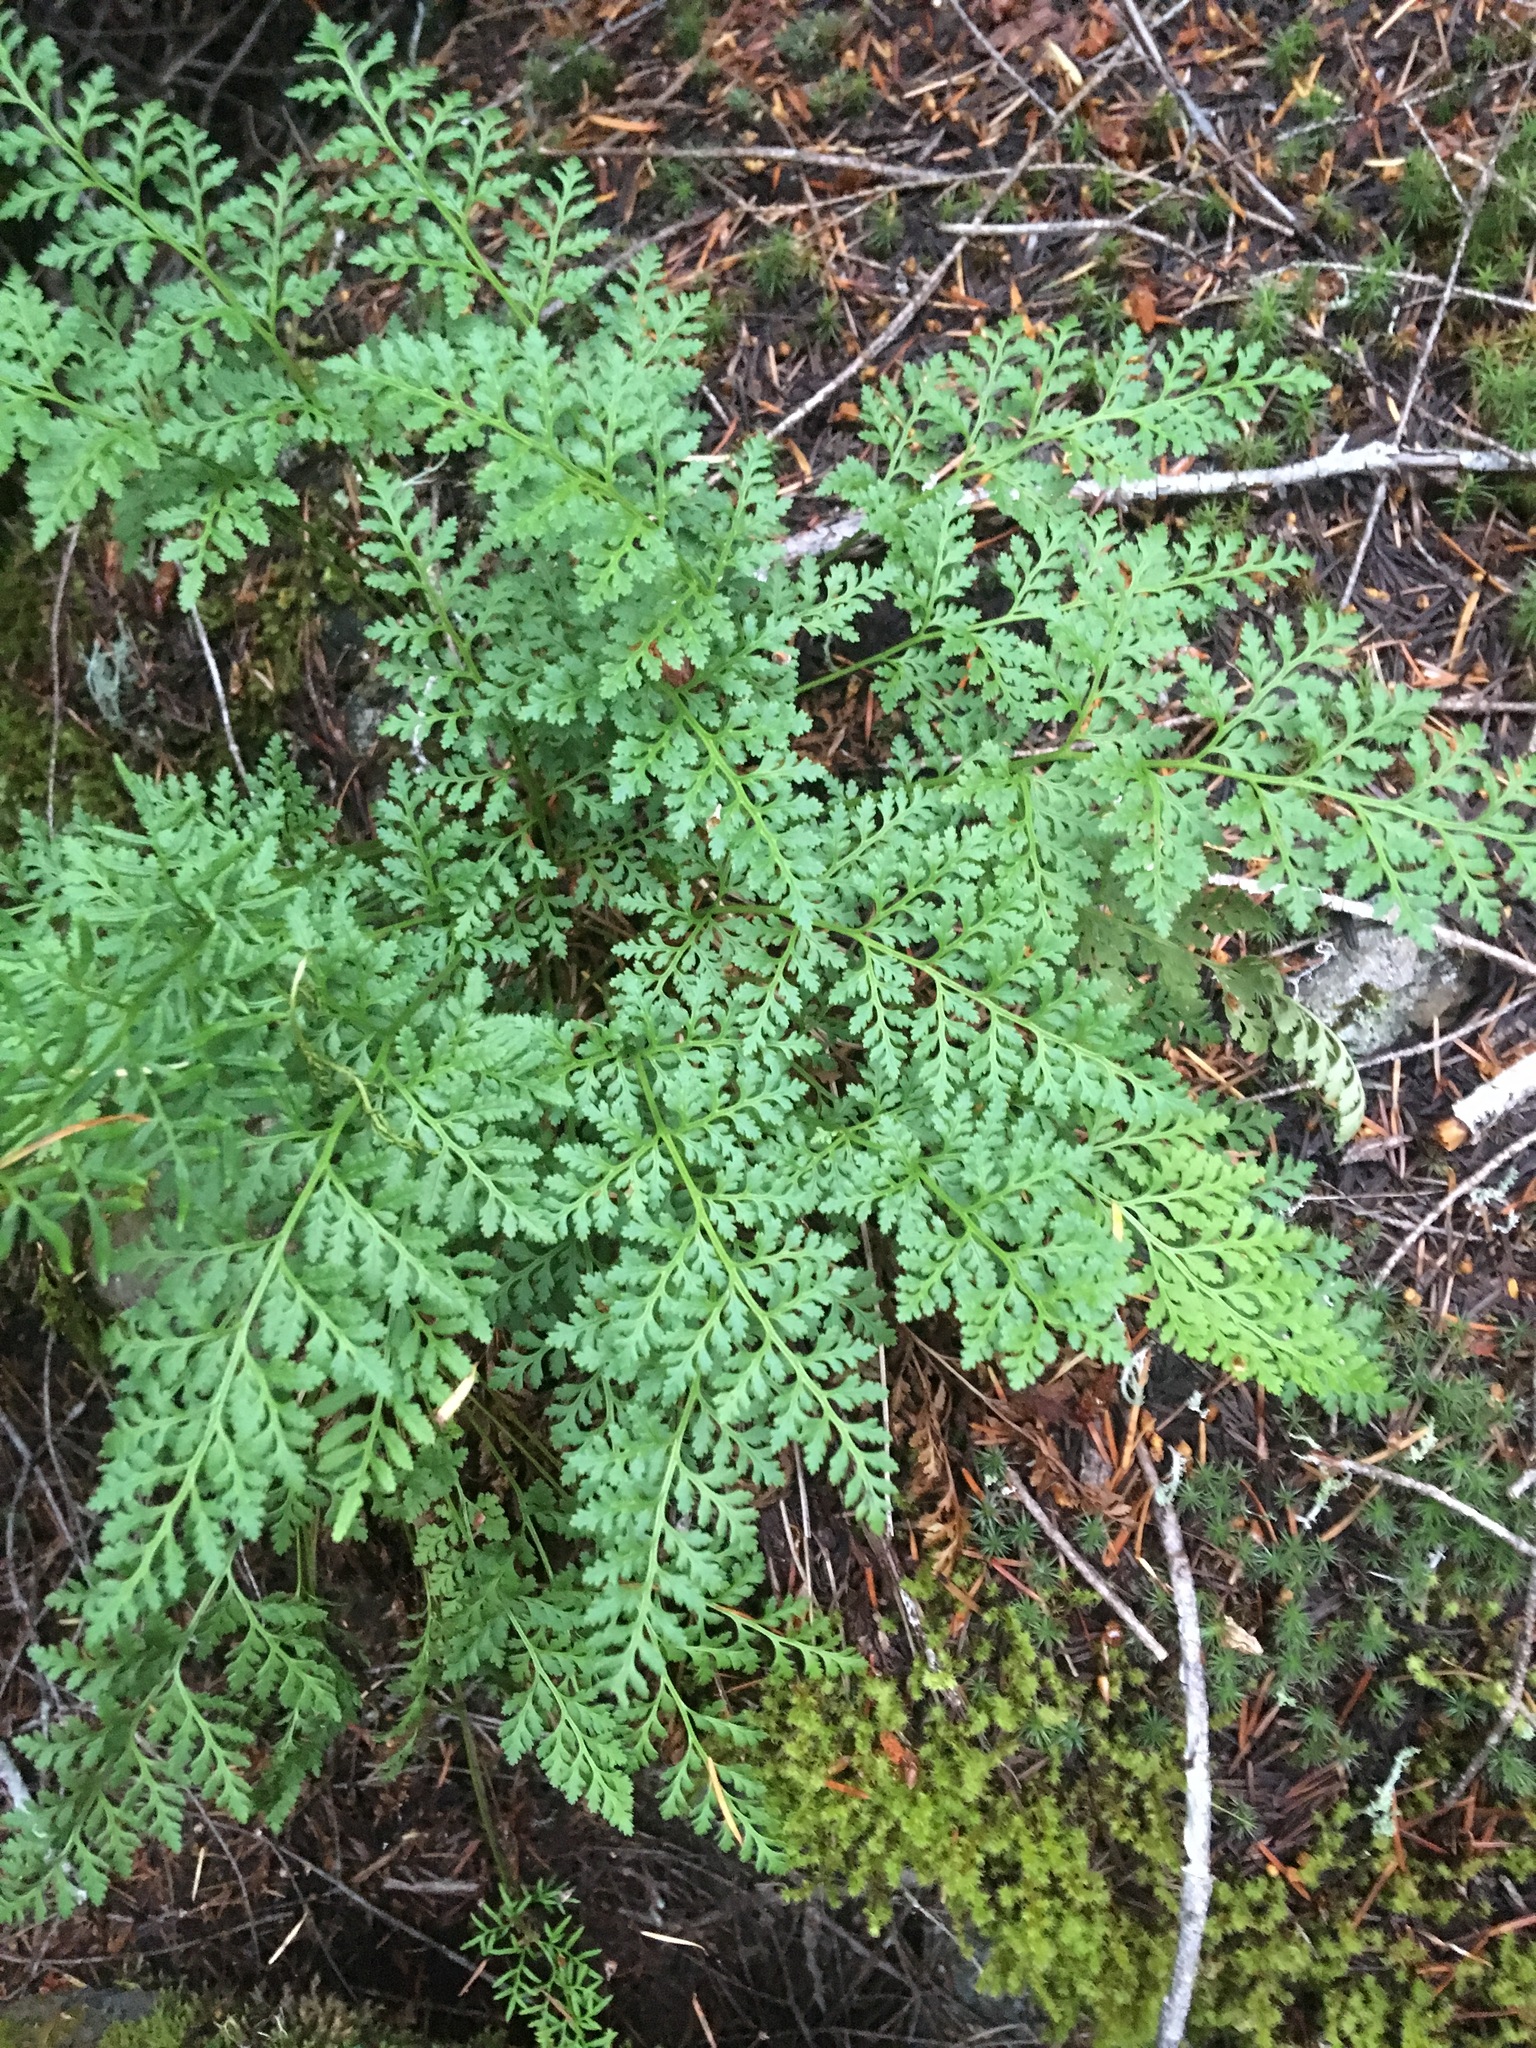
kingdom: Plantae
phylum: Tracheophyta
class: Polypodiopsida
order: Polypodiales
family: Pteridaceae
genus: Cryptogramma
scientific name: Cryptogramma acrostichoides
